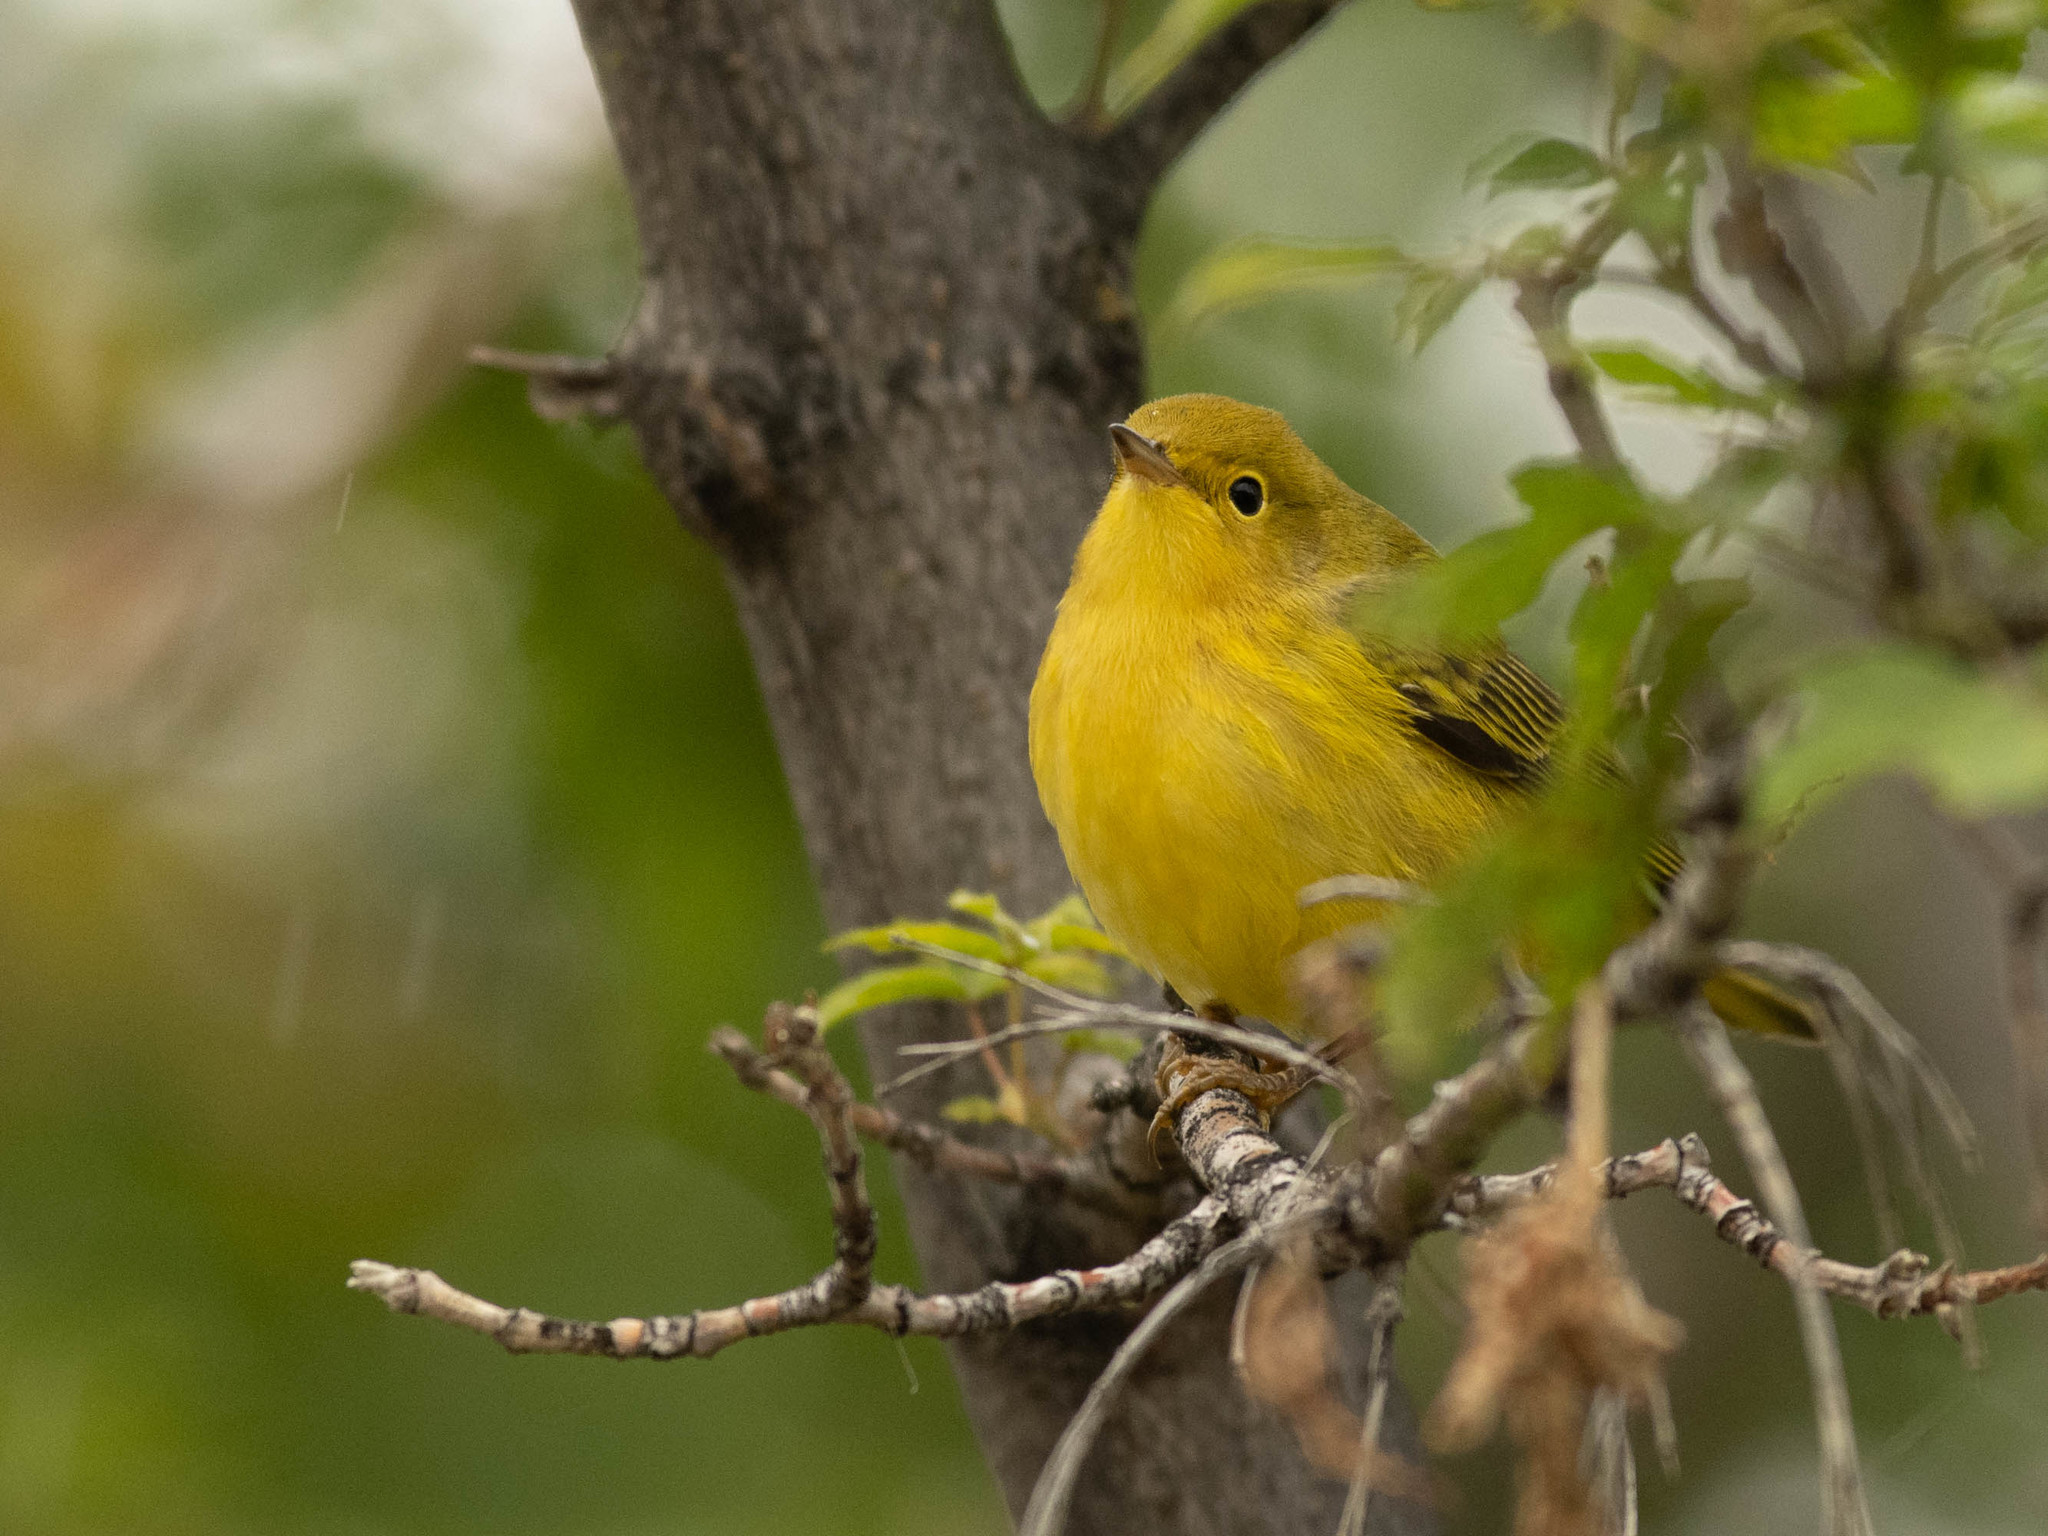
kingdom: Animalia
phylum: Chordata
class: Aves
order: Passeriformes
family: Parulidae
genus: Setophaga
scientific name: Setophaga petechia
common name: Yellow warbler
